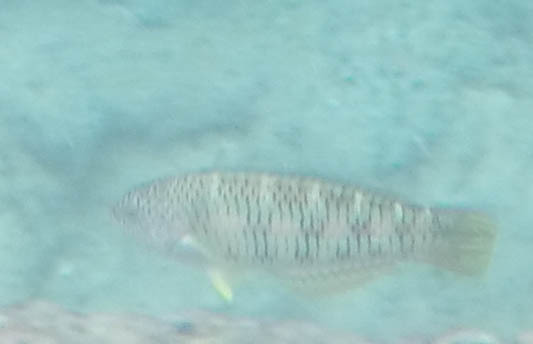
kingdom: Animalia
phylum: Chordata
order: Perciformes
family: Labridae
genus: Thalassoma
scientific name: Thalassoma trilobatum
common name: Christmas wrasse
